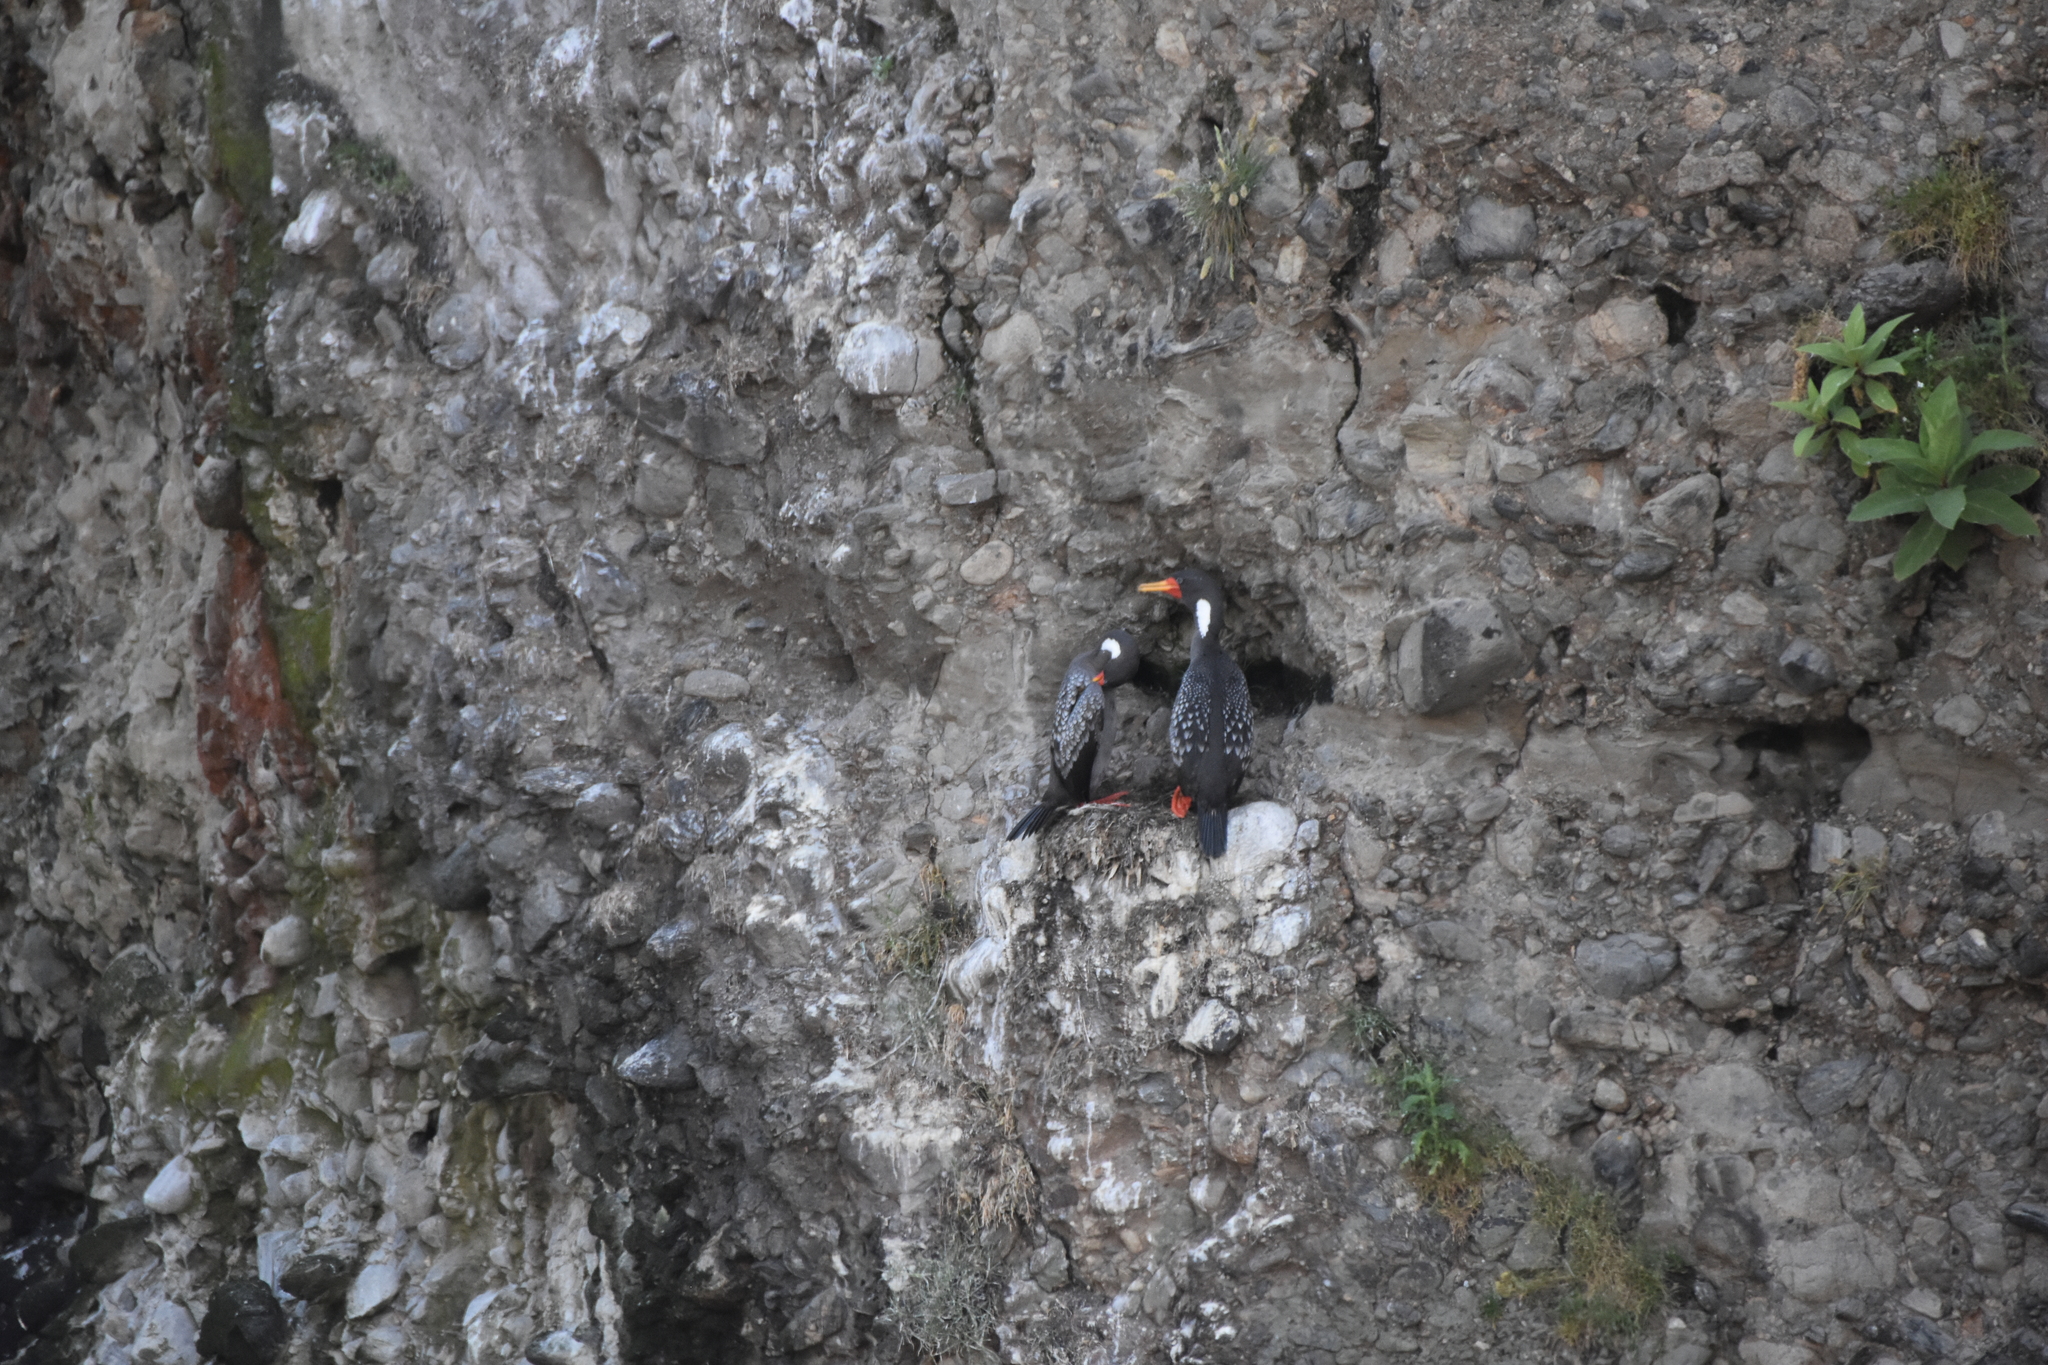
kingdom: Animalia
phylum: Chordata
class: Aves
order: Suliformes
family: Phalacrocoracidae
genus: Phalacrocorax
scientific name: Phalacrocorax gaimardi
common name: Red-legged cormorant
